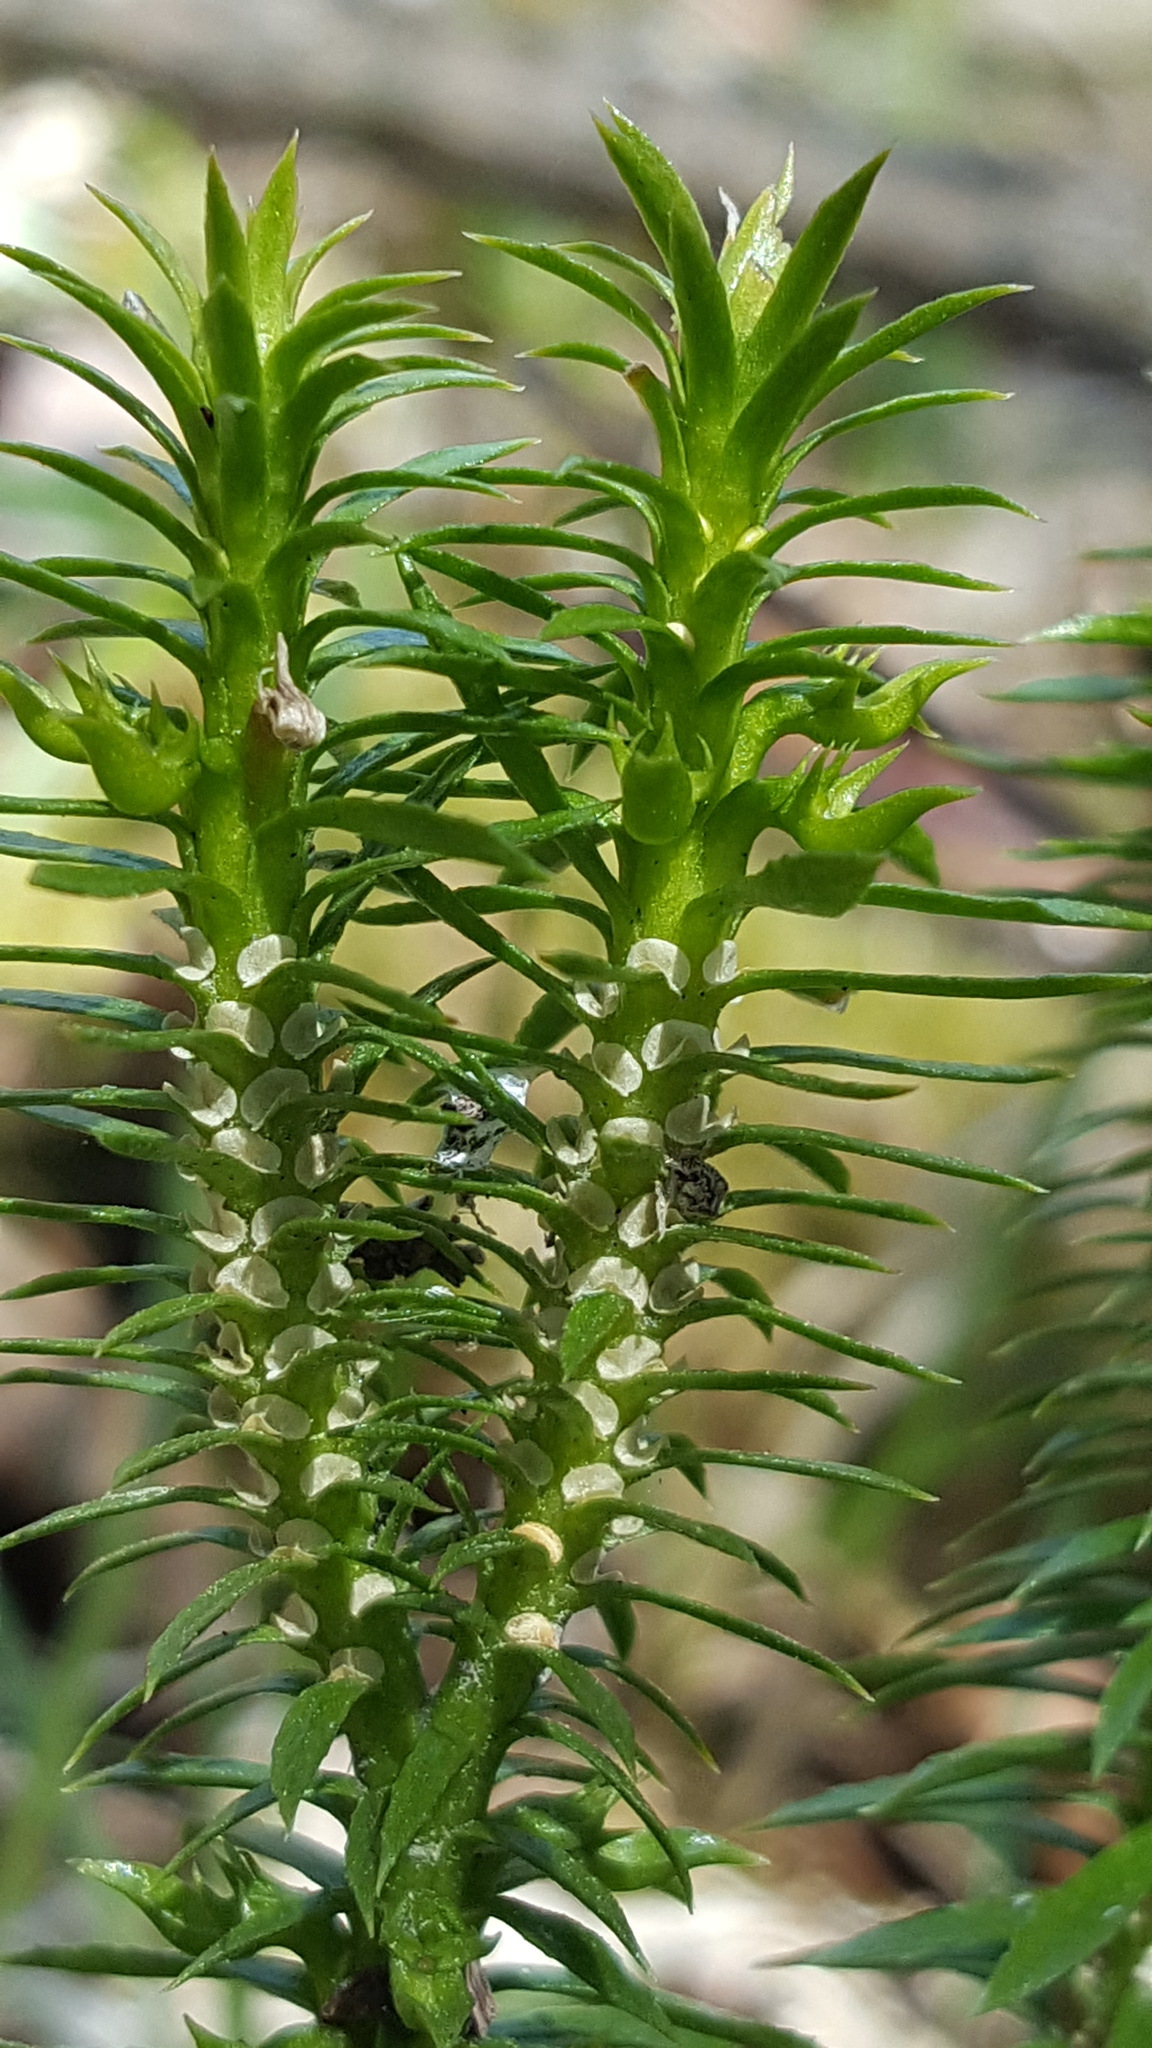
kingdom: Plantae
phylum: Tracheophyta
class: Lycopodiopsida
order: Lycopodiales
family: Lycopodiaceae
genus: Huperzia
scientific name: Huperzia lucidula
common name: Shining clubmoss
